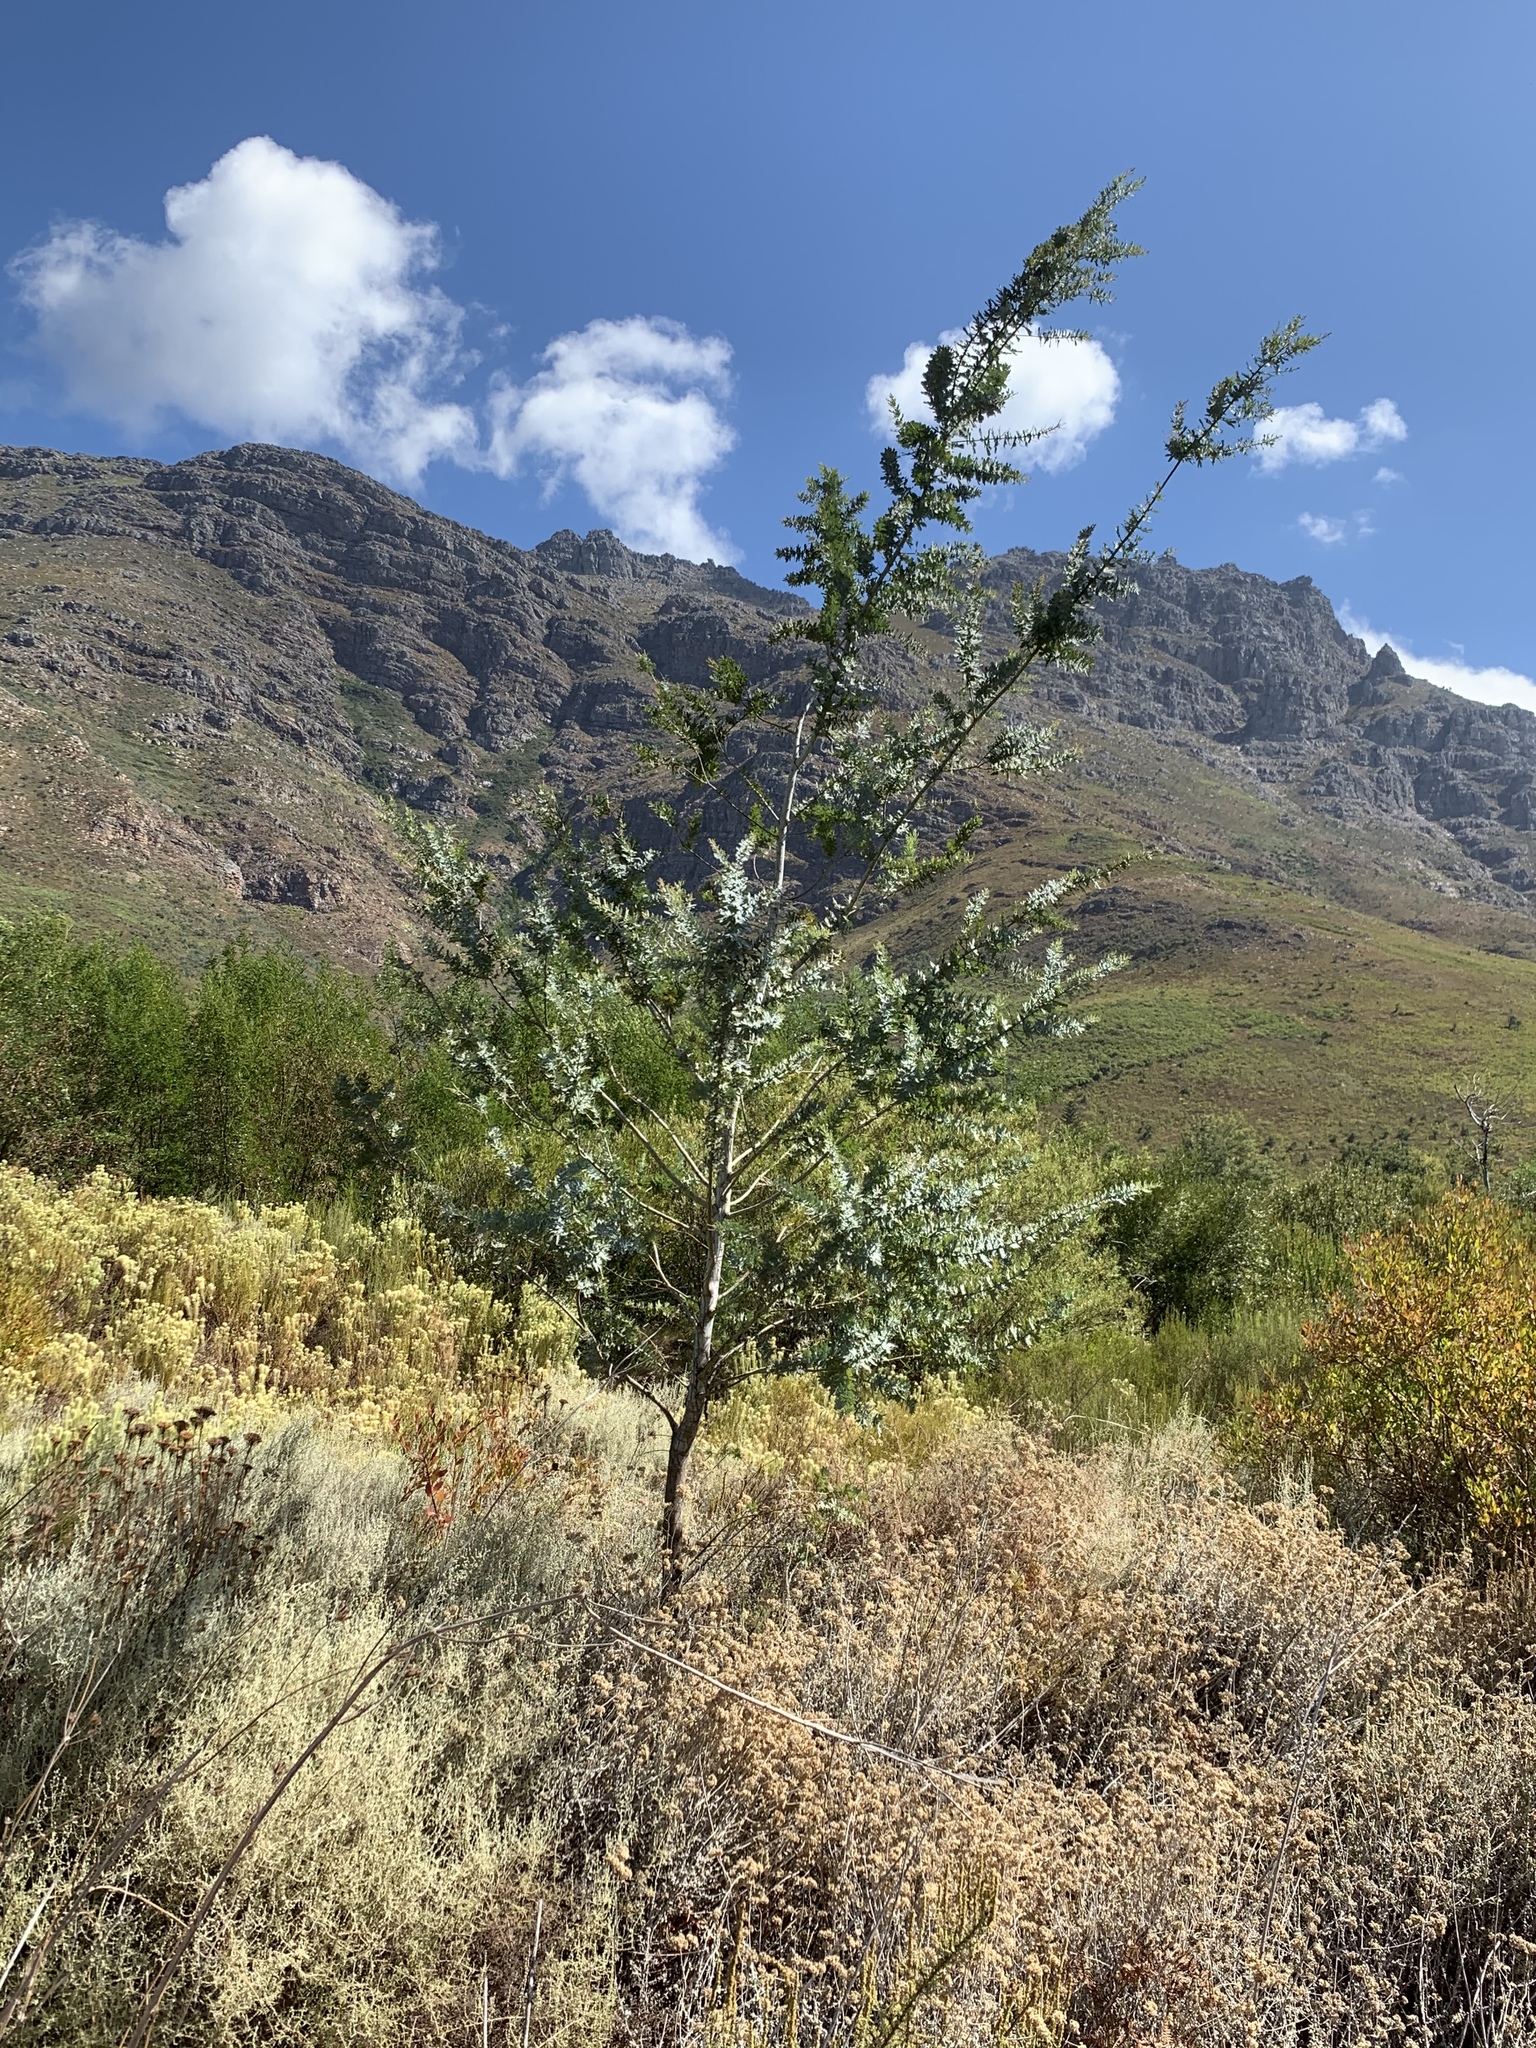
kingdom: Plantae
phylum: Tracheophyta
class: Magnoliopsida
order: Fabales
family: Fabaceae
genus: Acacia
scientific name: Acacia baileyana
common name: Cootamundra wattle
